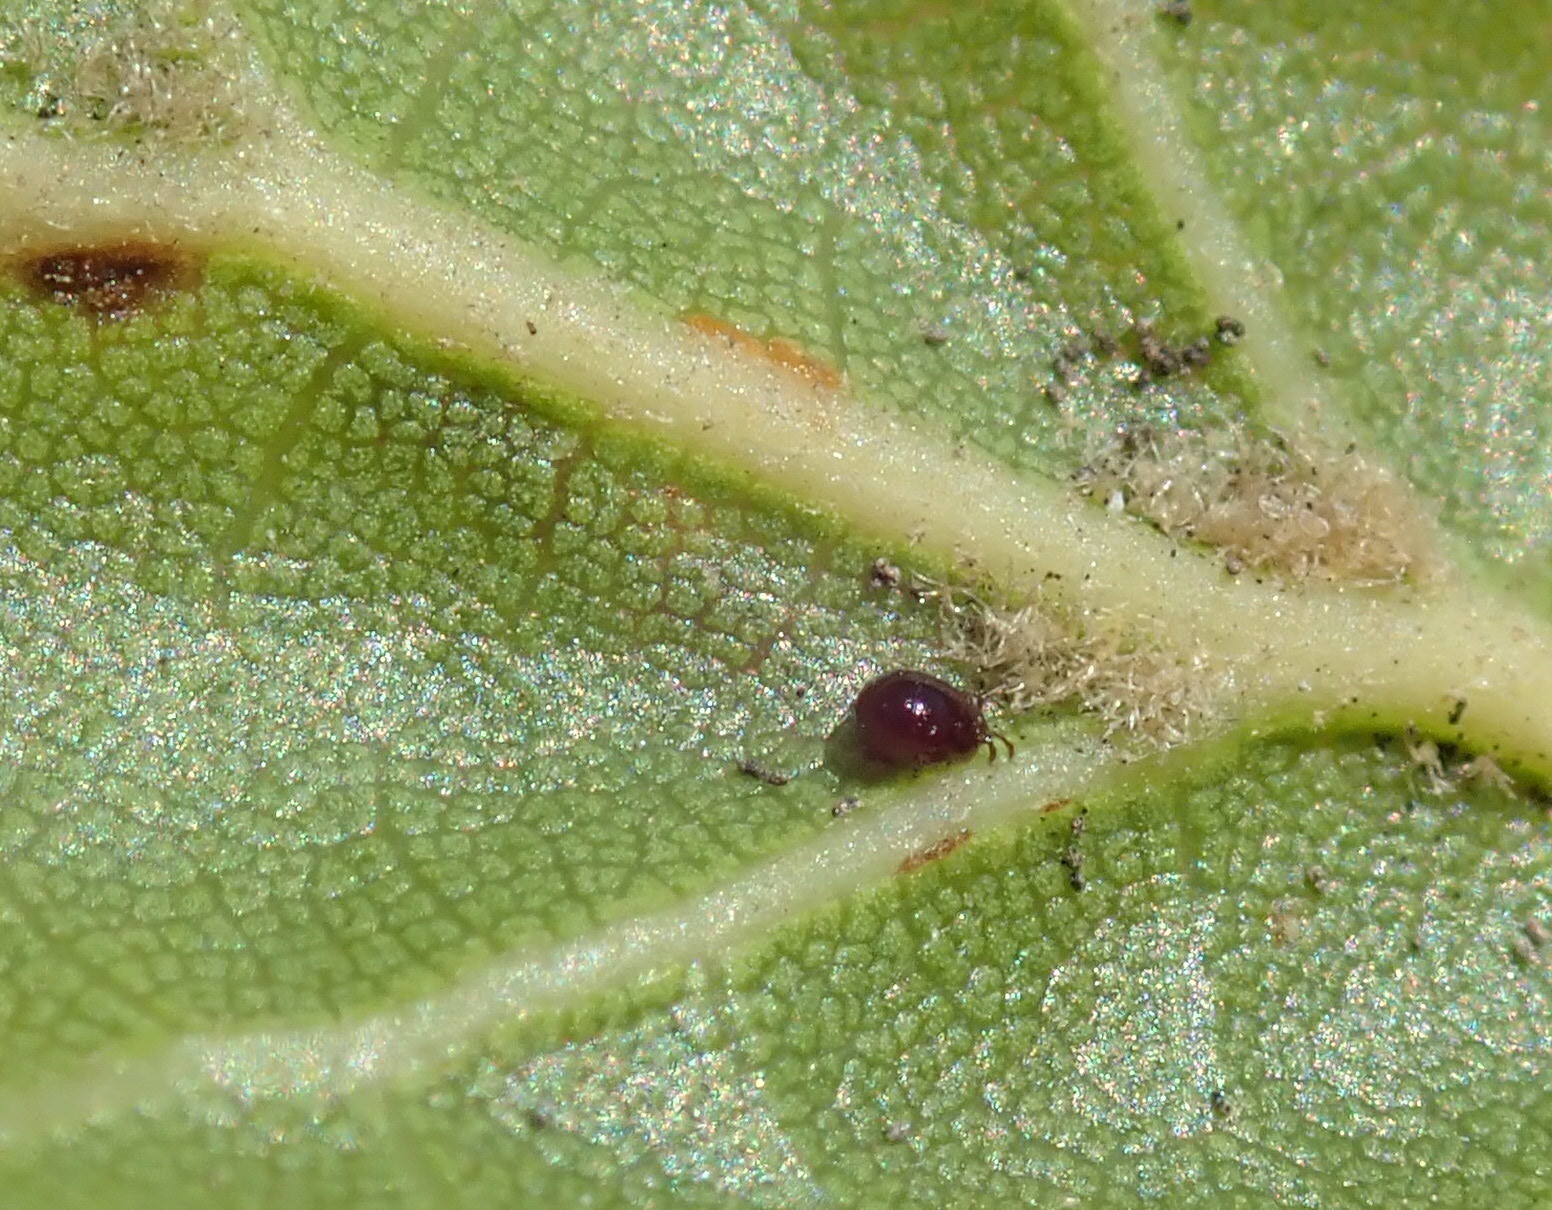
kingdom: Plantae
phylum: Tracheophyta
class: Magnoliopsida
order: Fagales
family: Fagaceae
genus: Quercus
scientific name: Quercus agrifolia
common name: California live oak
